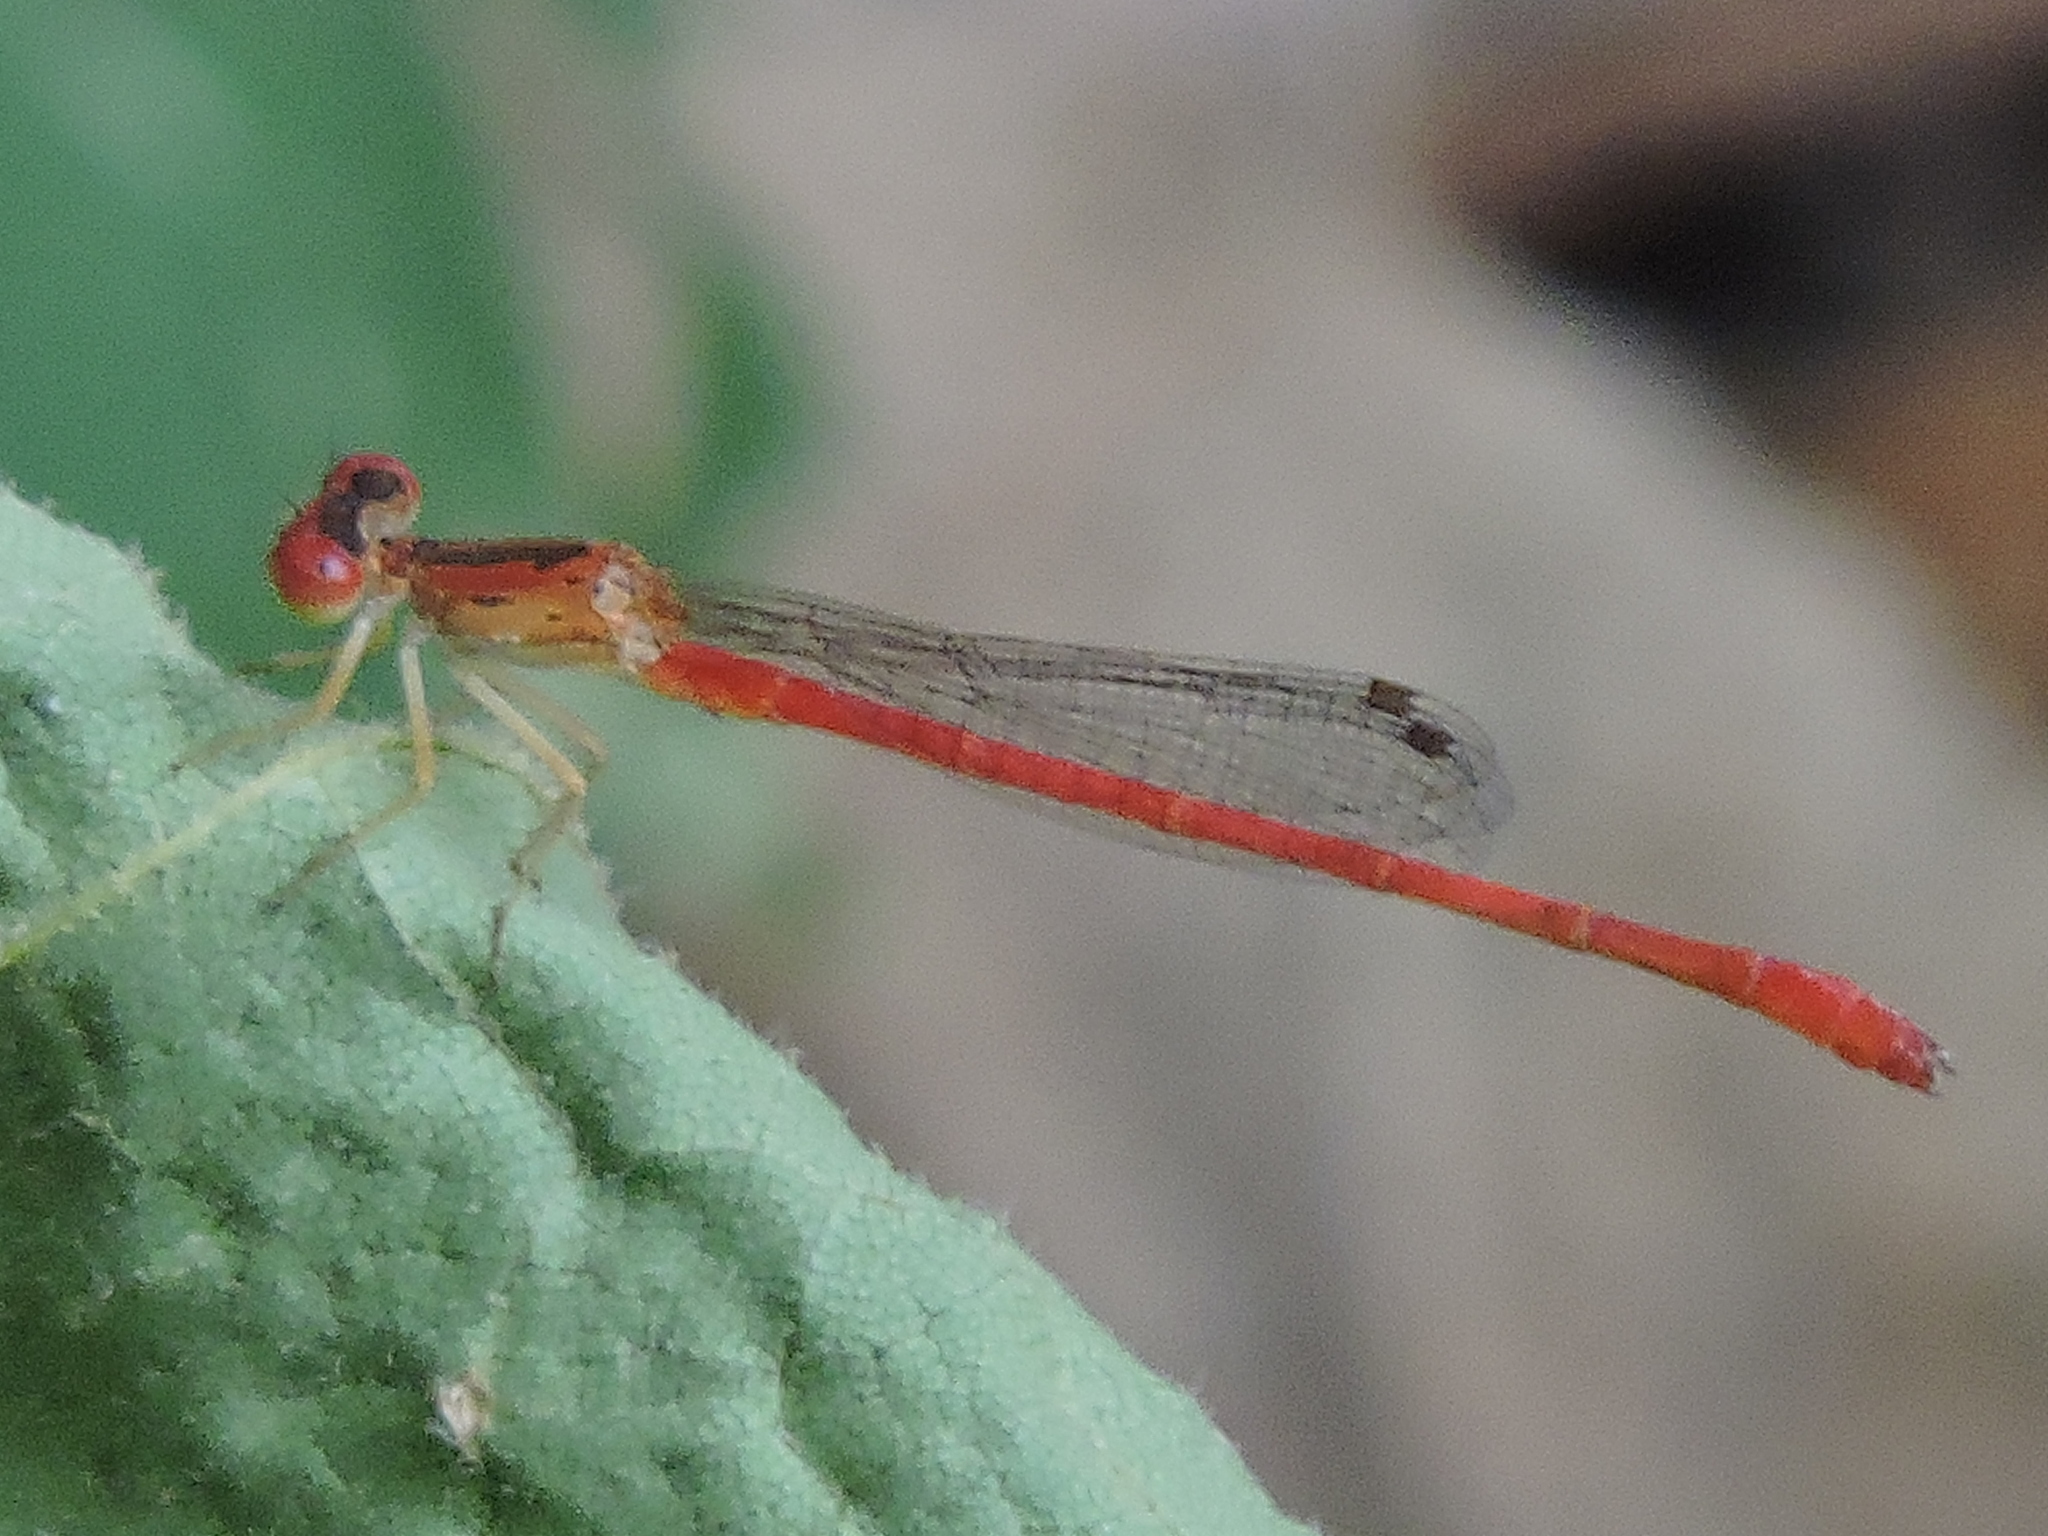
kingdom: Animalia
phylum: Arthropoda
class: Insecta
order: Odonata
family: Coenagrionidae
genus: Telebasis
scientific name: Telebasis salva
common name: Desert firetail
